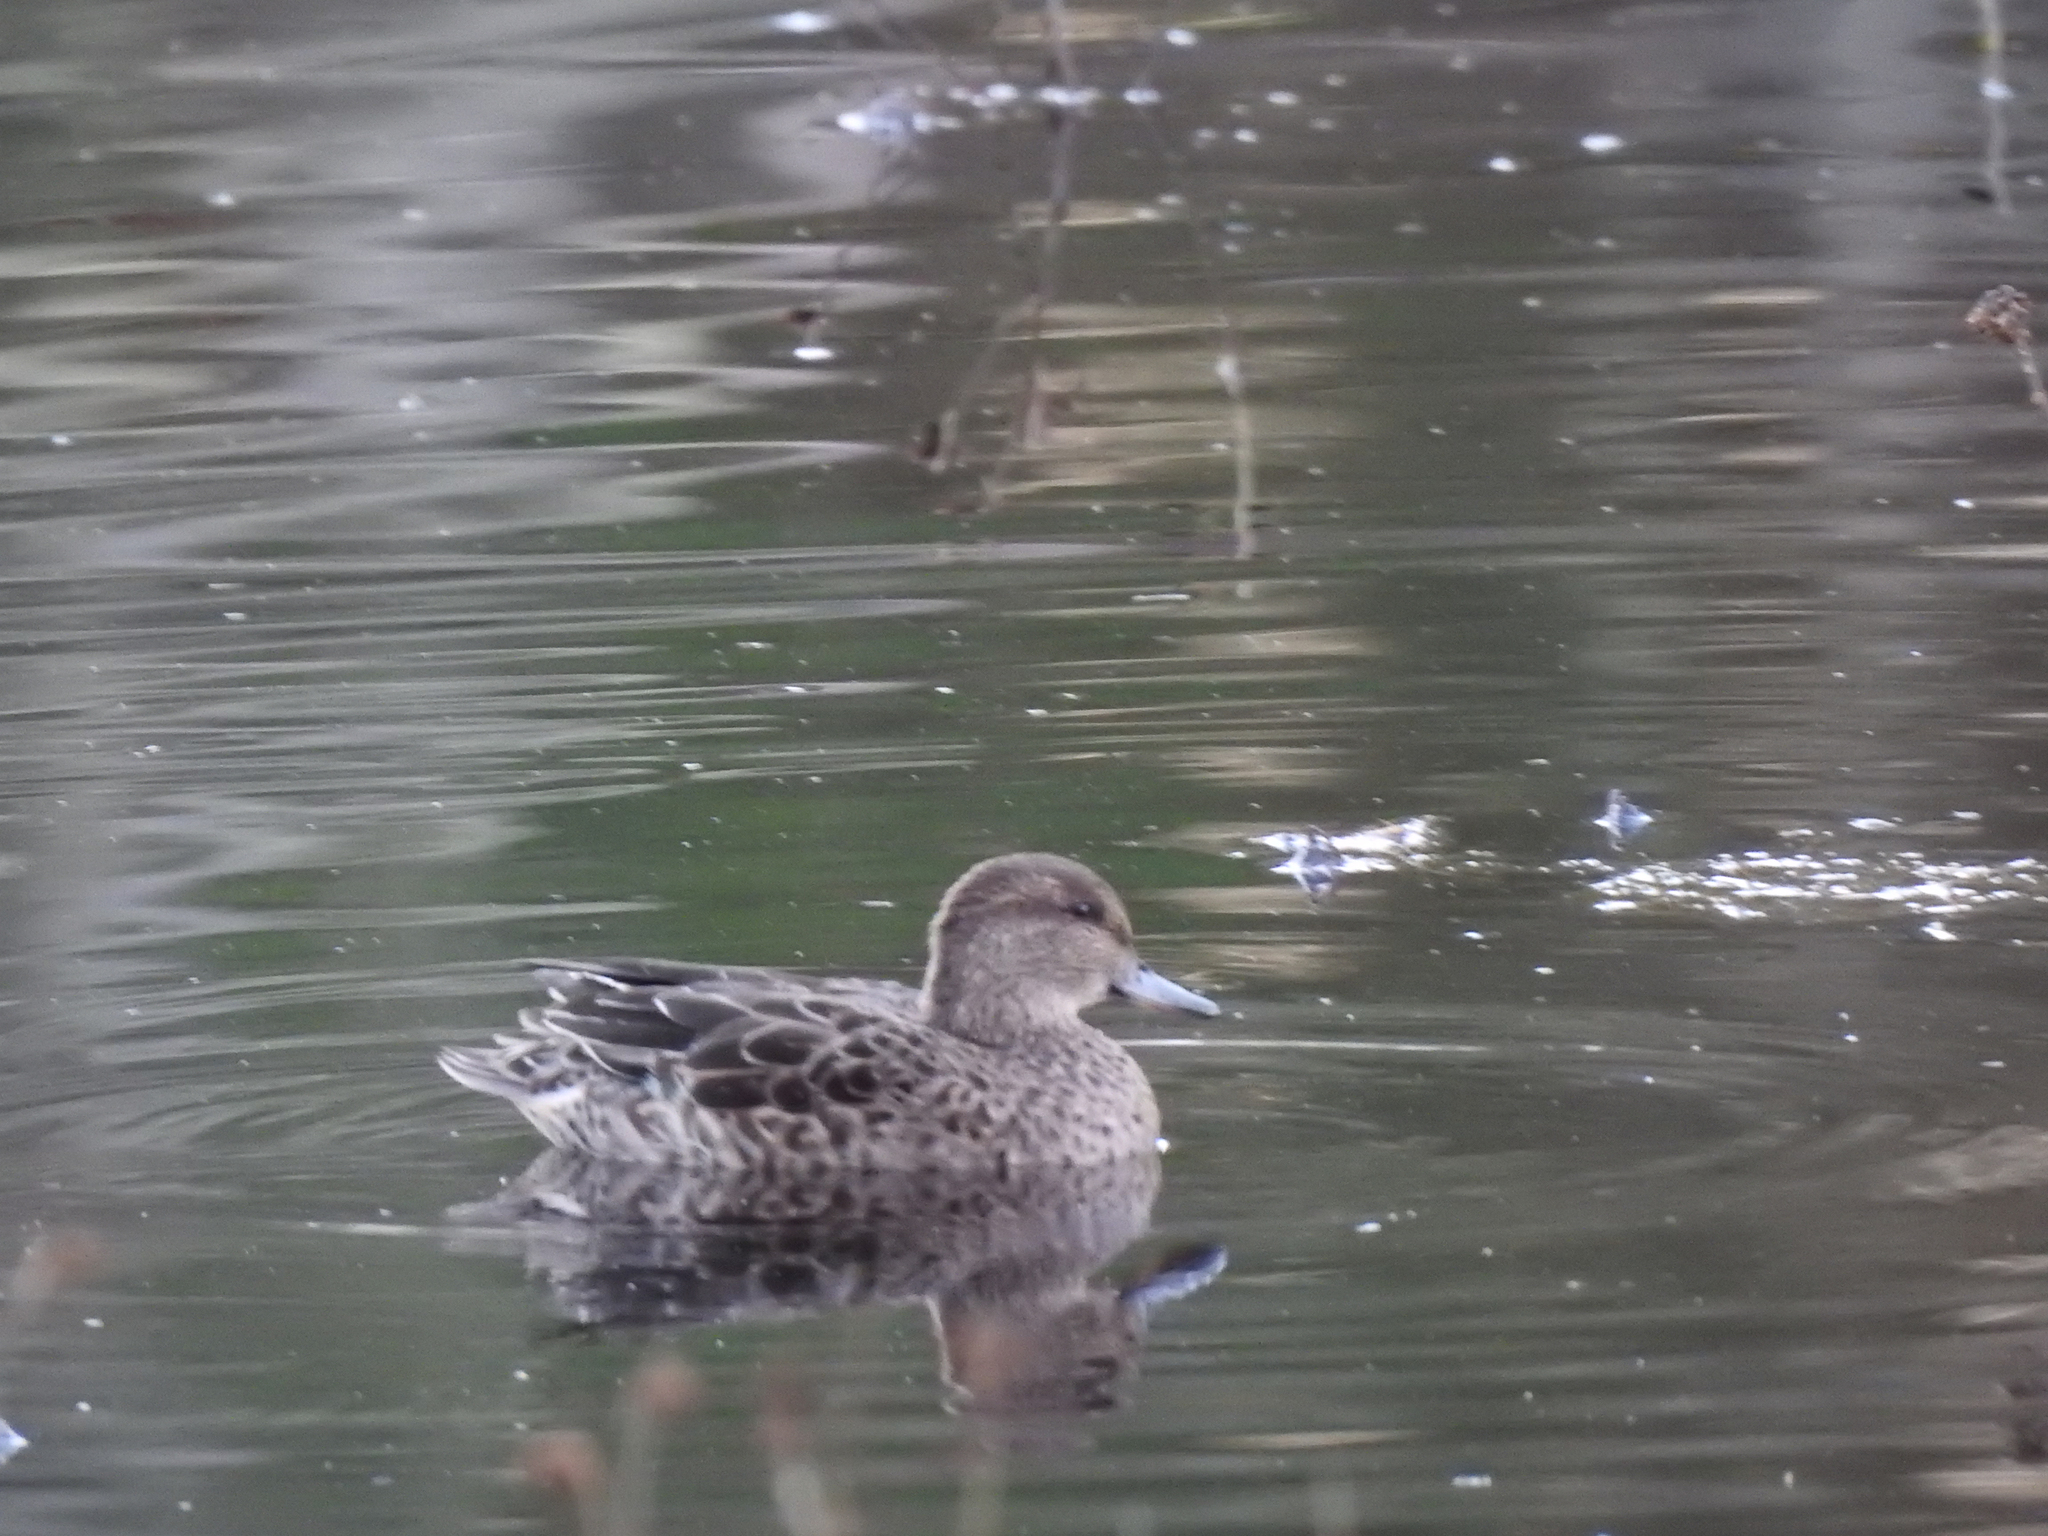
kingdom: Animalia
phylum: Chordata
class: Aves
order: Anseriformes
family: Anatidae
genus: Anas
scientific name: Anas crecca
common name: Eurasian teal
